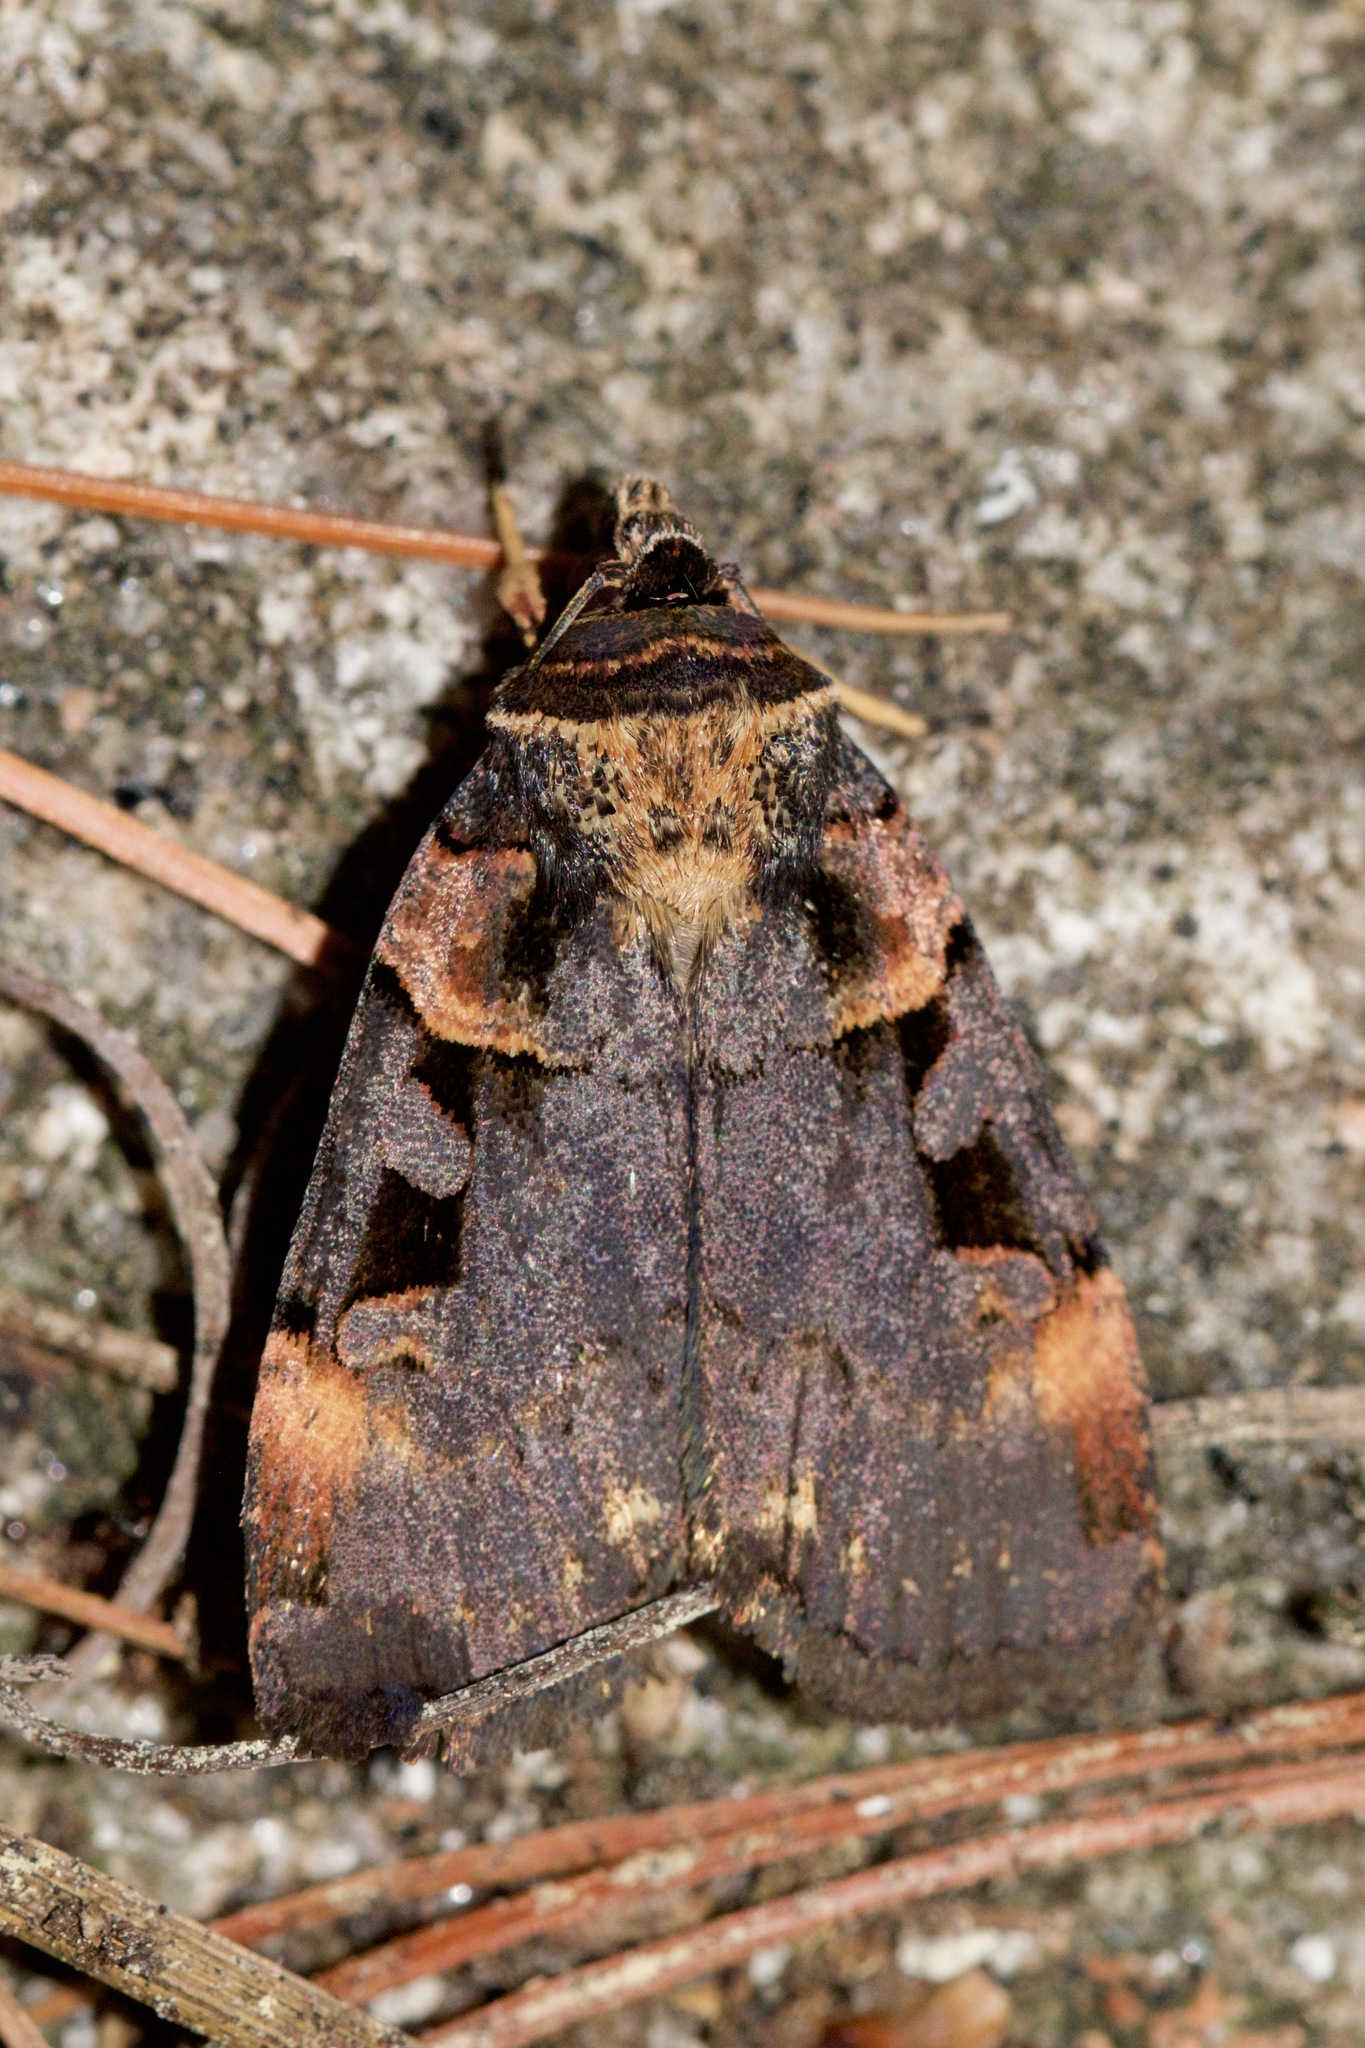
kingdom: Animalia
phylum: Arthropoda
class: Insecta
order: Lepidoptera
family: Noctuidae
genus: Pseudohermonassa
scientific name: Pseudohermonassa bicarnea
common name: Pink spotted dart
